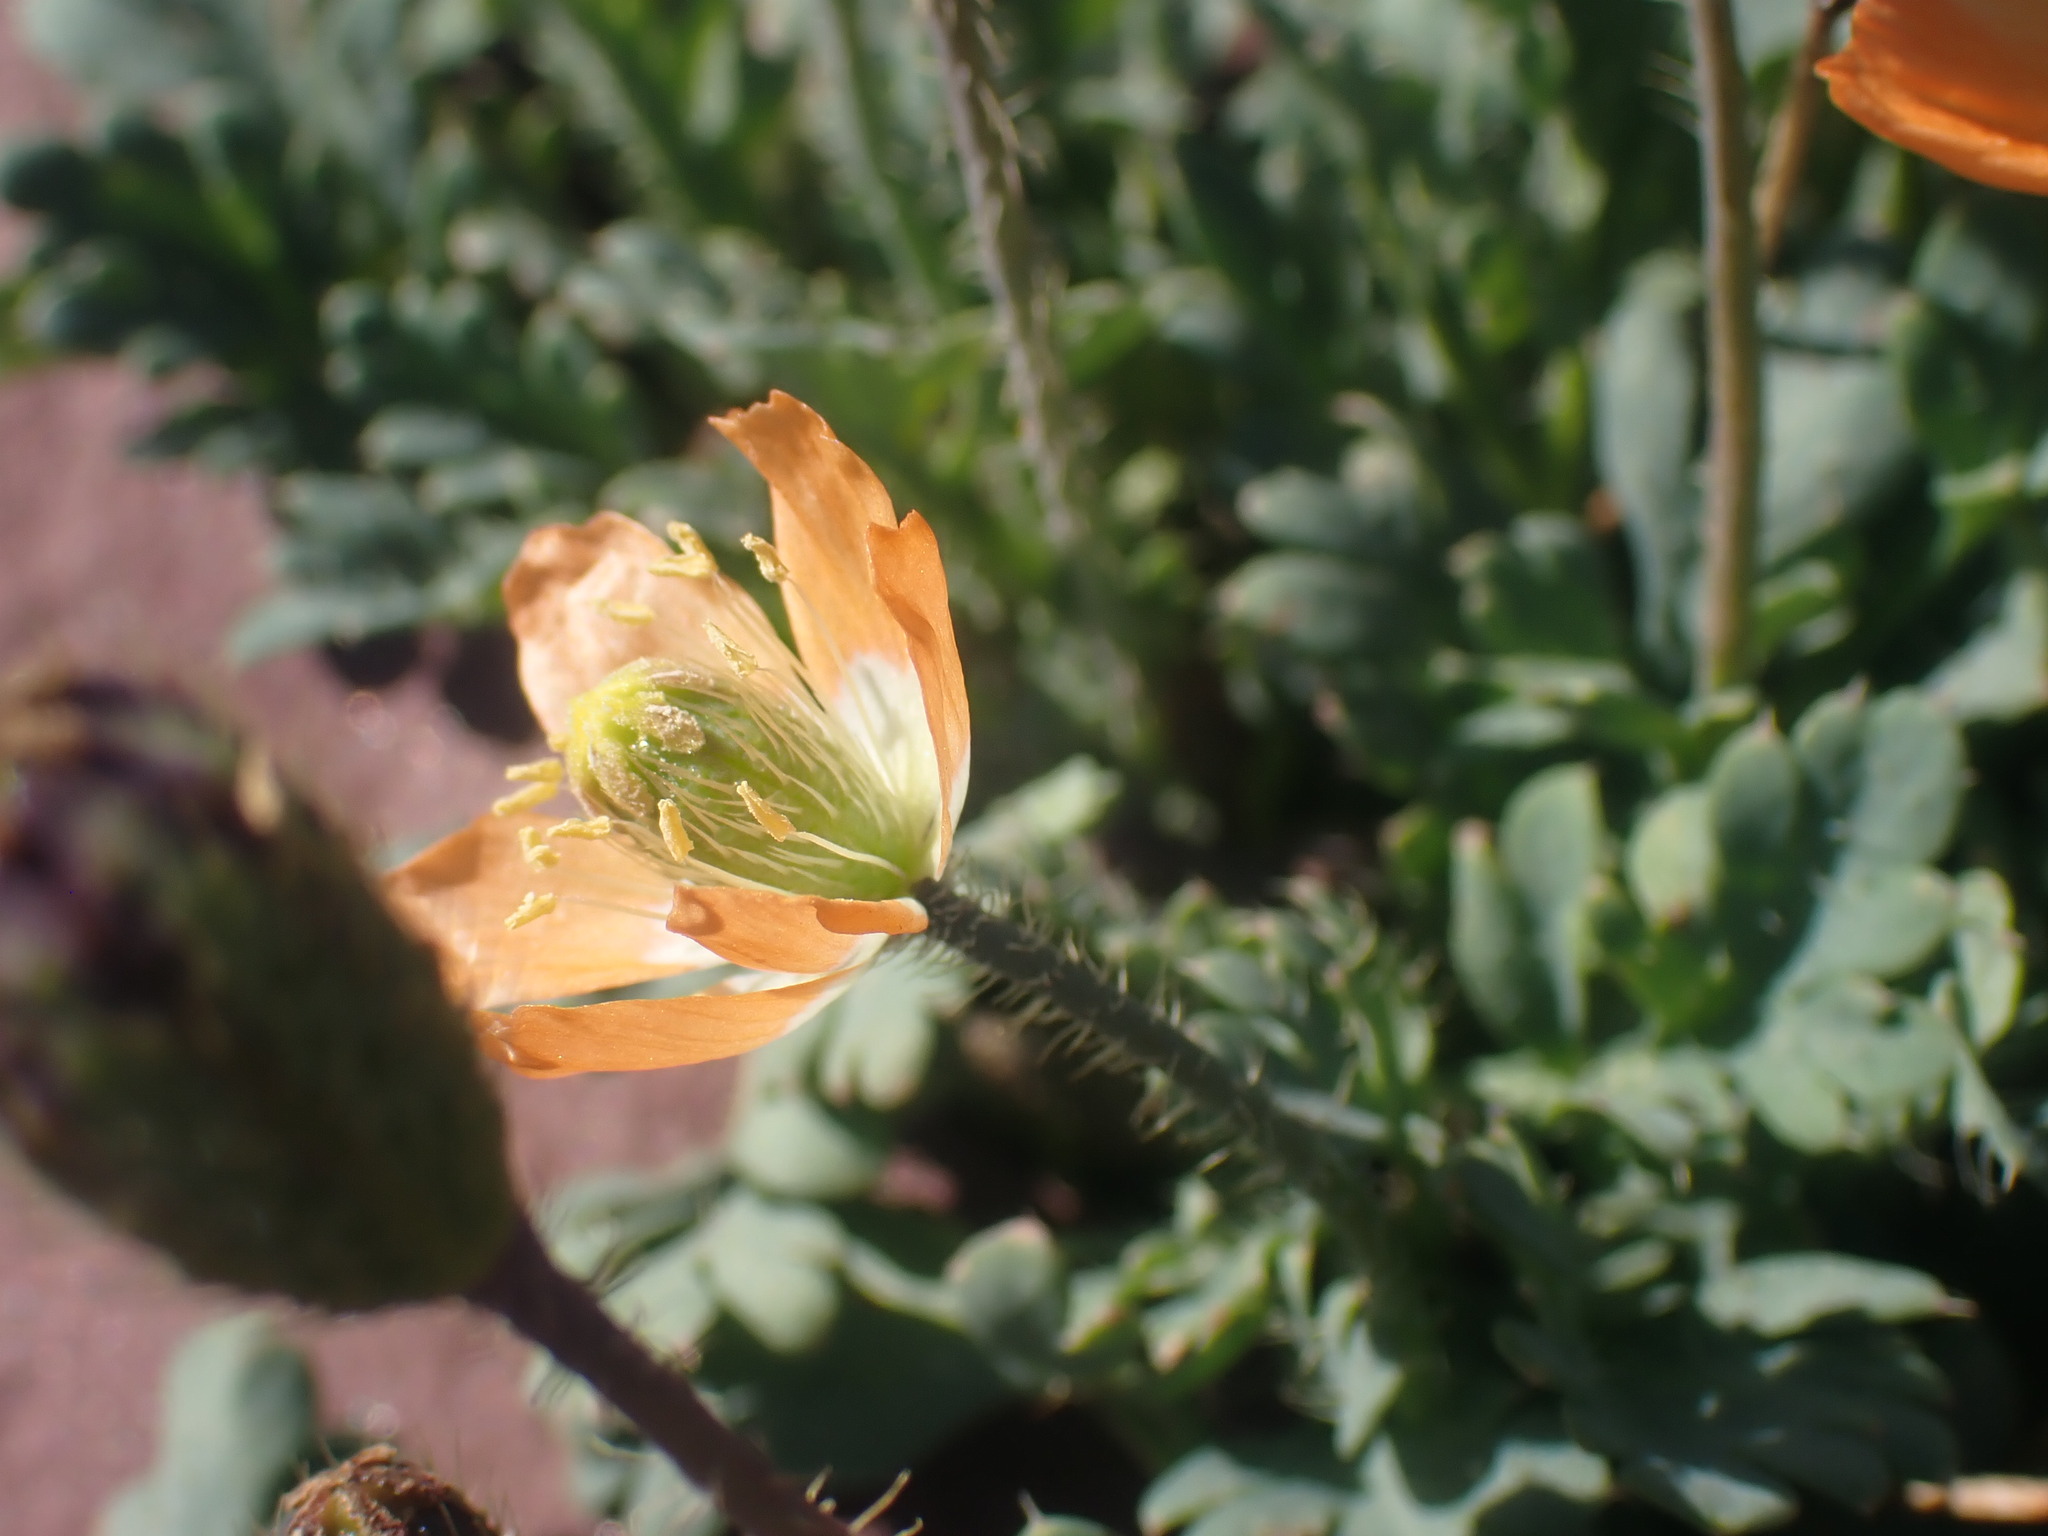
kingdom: Plantae
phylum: Tracheophyta
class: Magnoliopsida
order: Ranunculales
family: Papaveraceae
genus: Papaver
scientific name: Papaver pygmaeum
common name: Alpine glacier poppy
